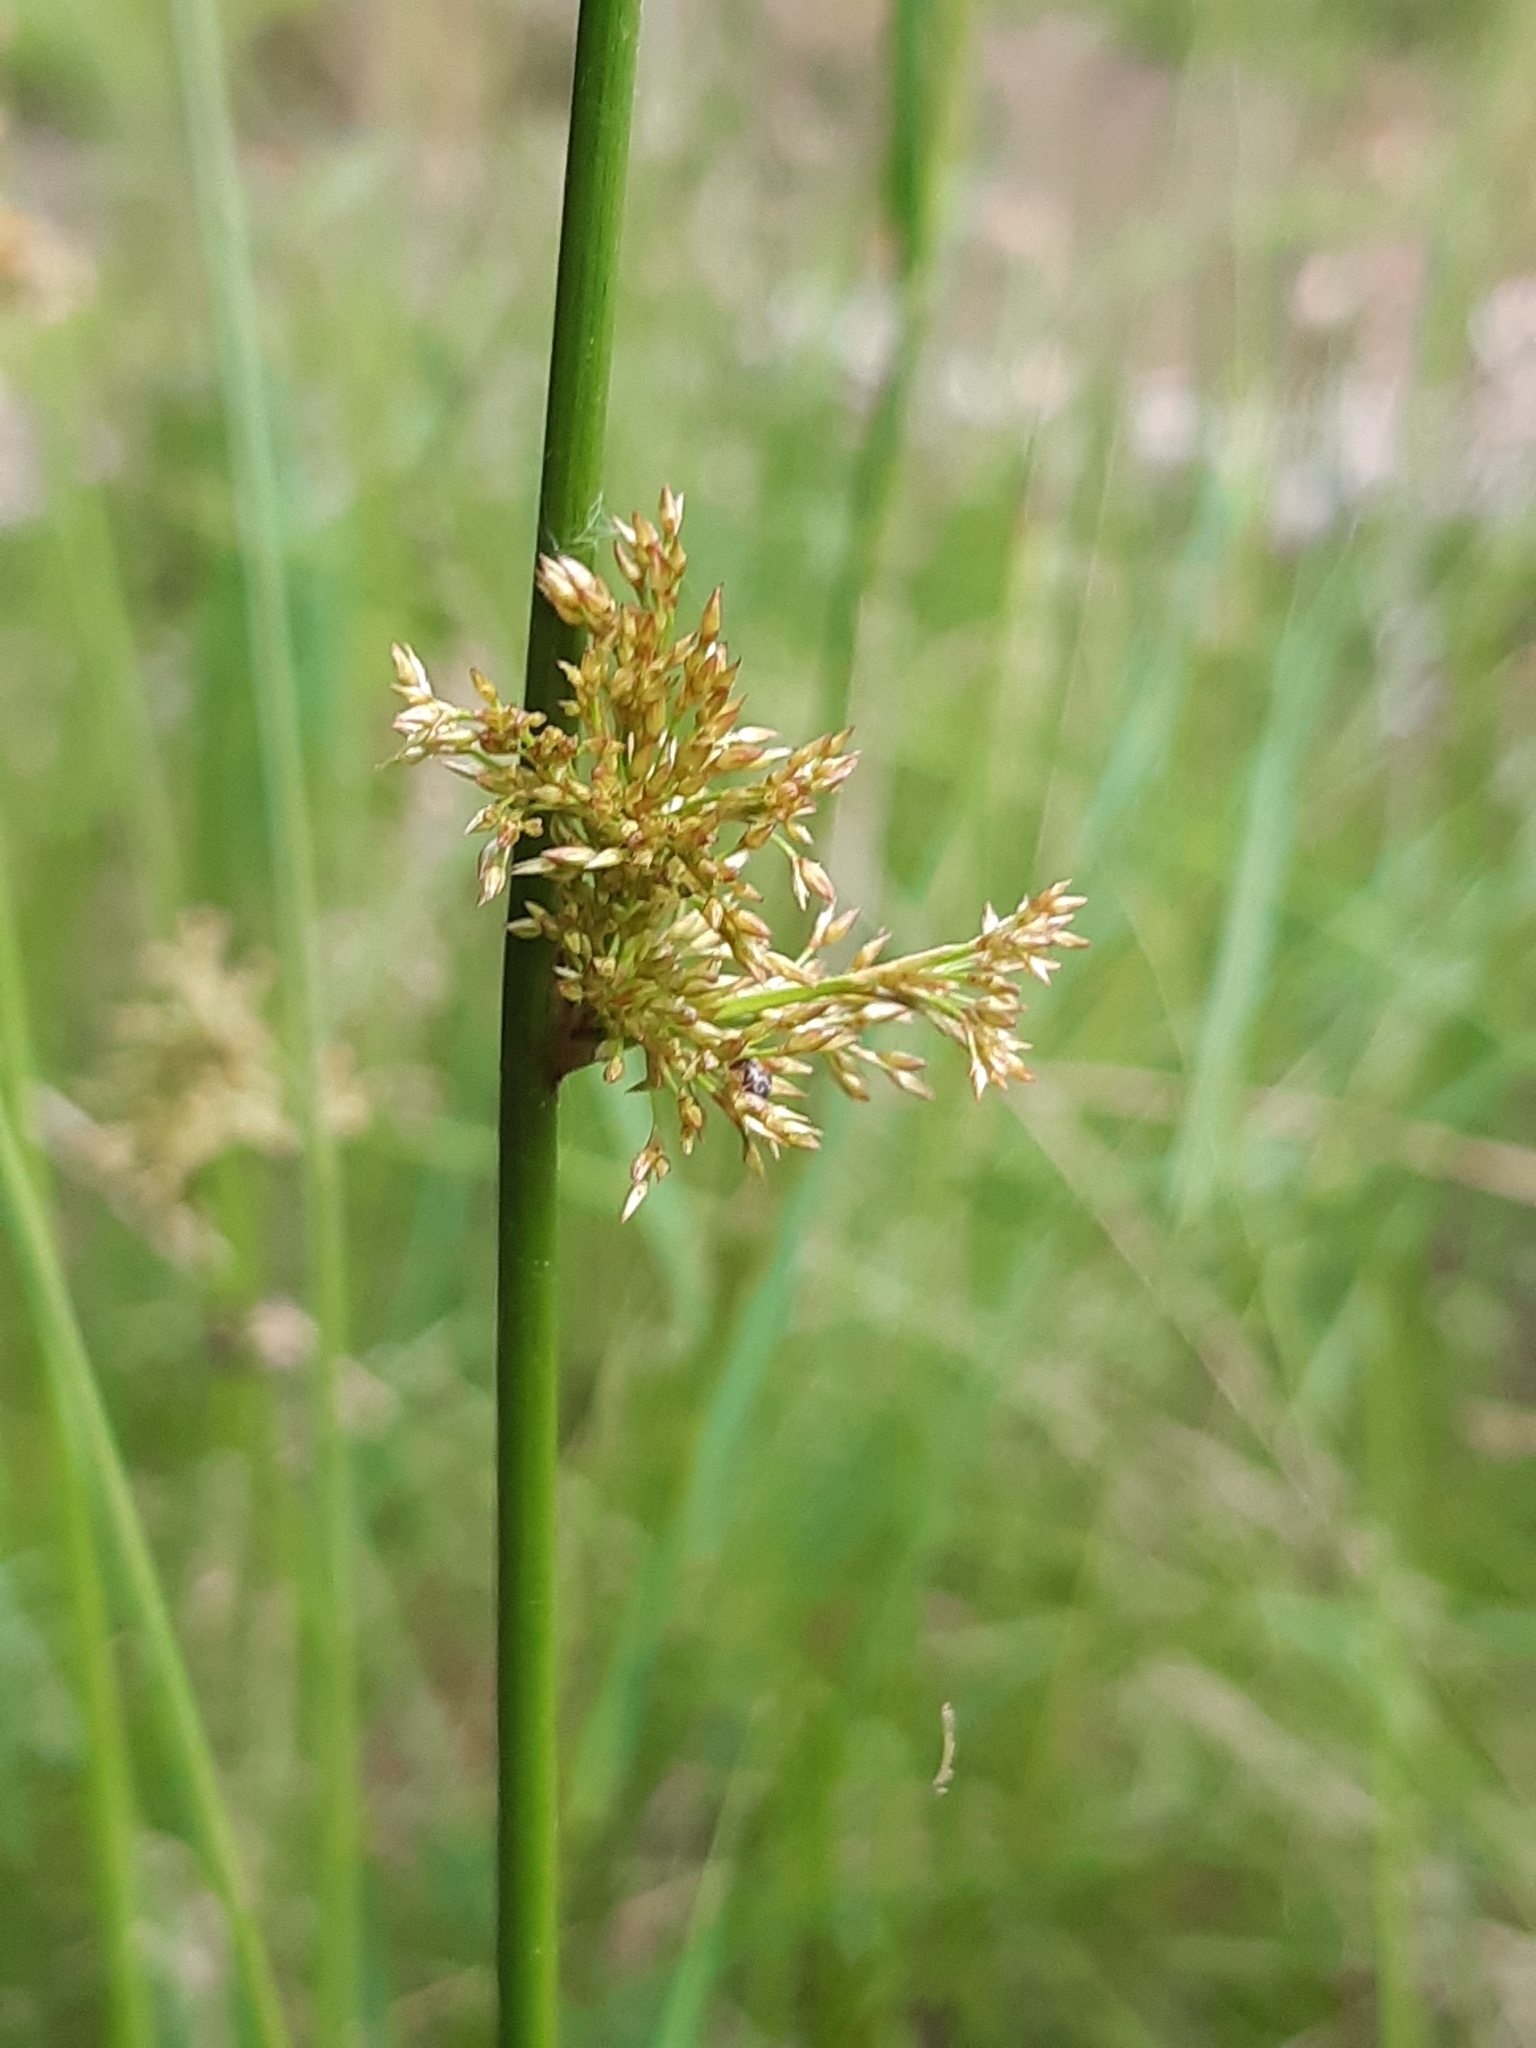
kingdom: Plantae
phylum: Tracheophyta
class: Liliopsida
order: Poales
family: Juncaceae
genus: Juncus
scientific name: Juncus effusus
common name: Soft rush
